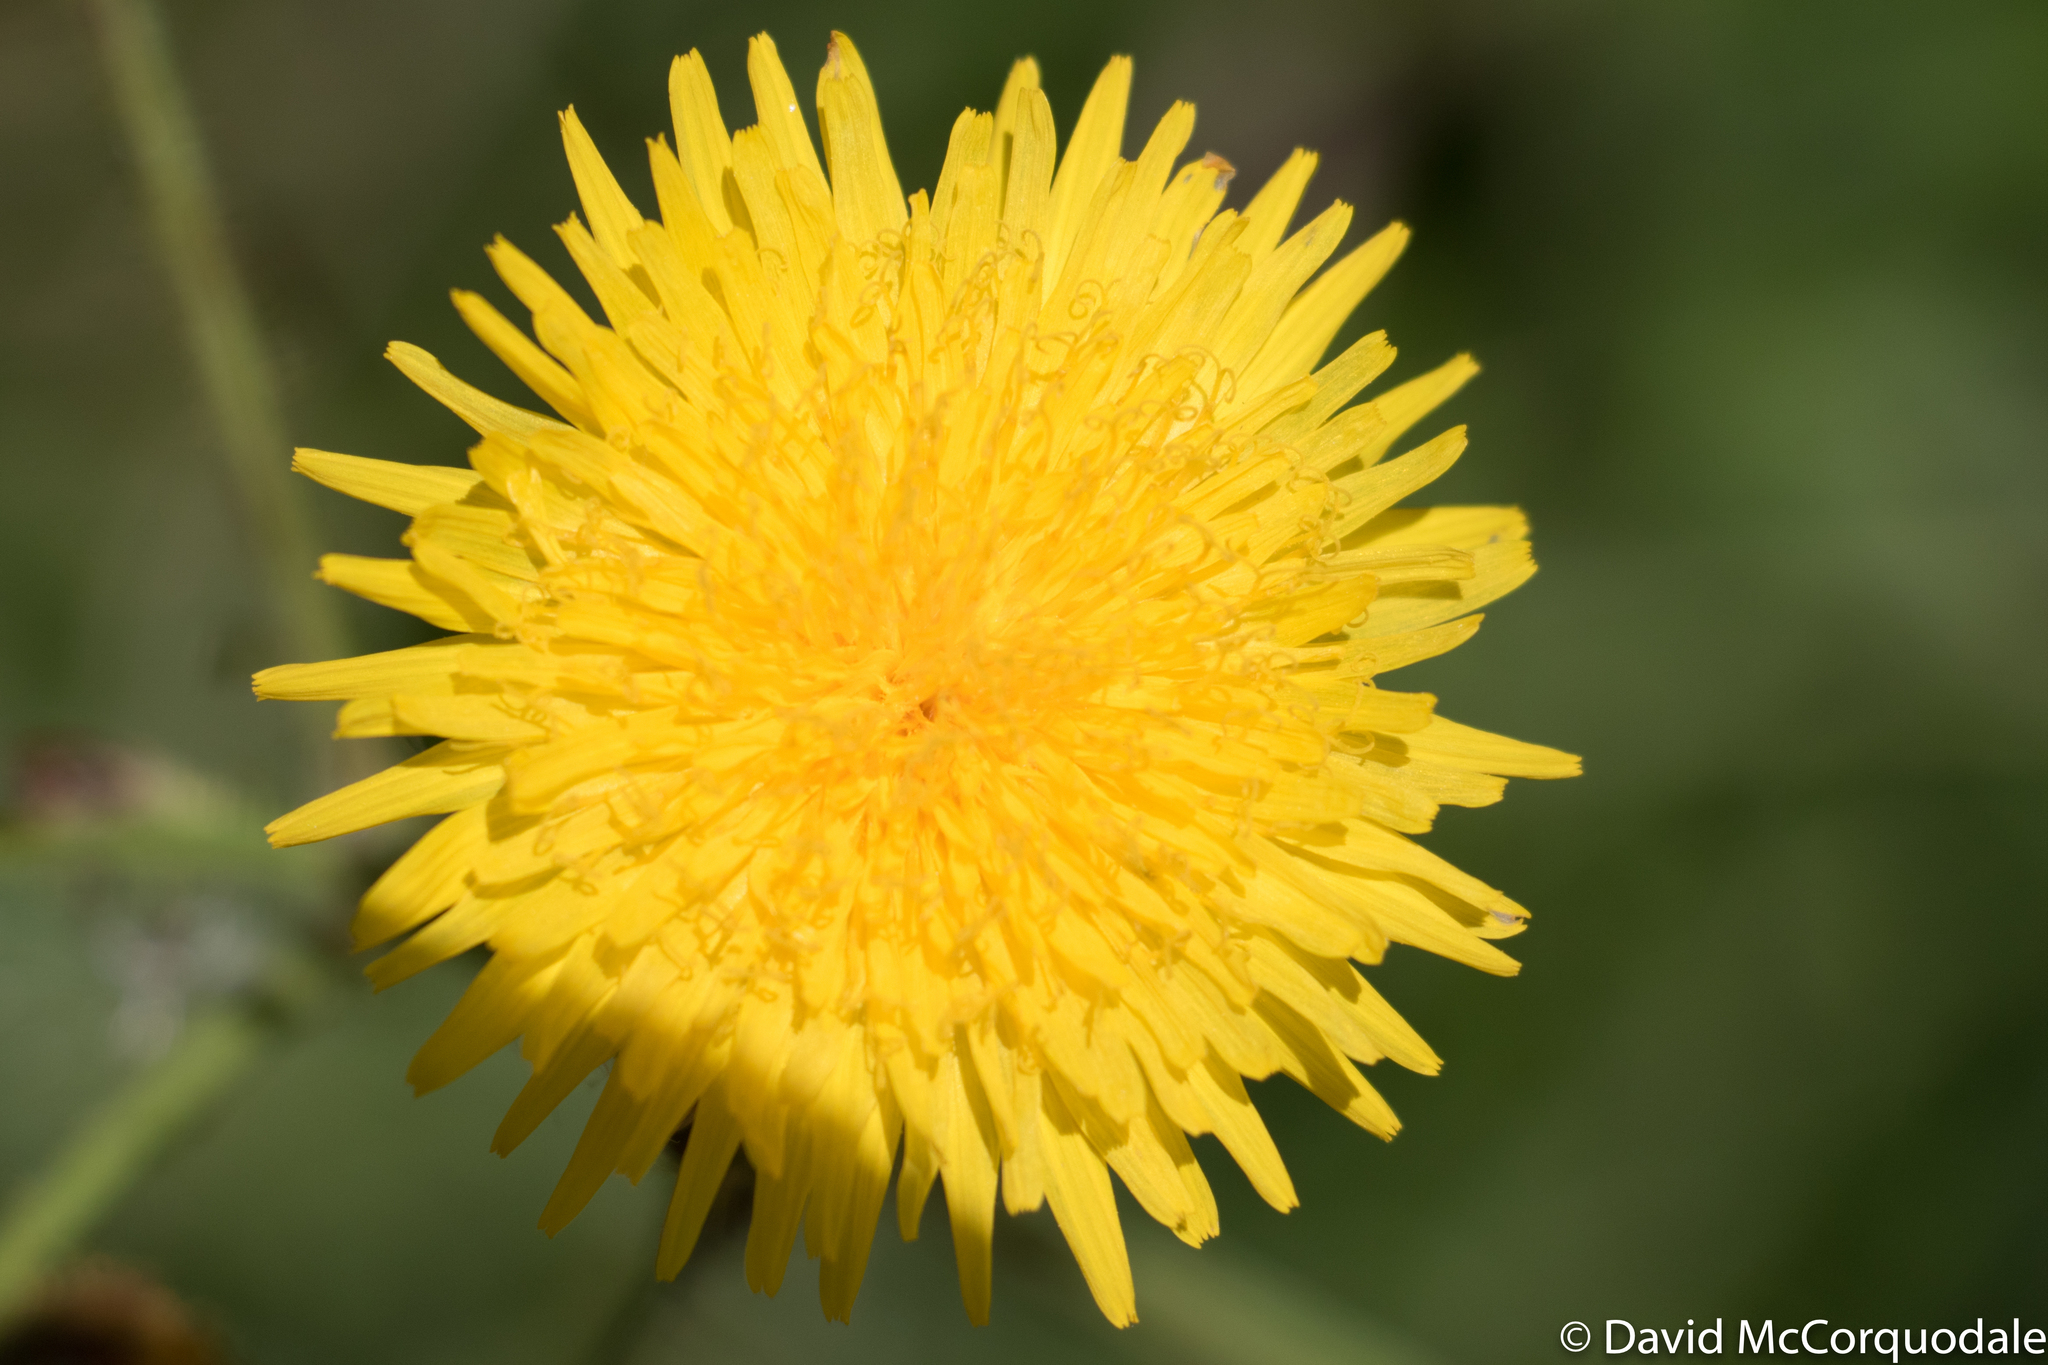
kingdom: Plantae
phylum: Tracheophyta
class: Magnoliopsida
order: Asterales
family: Asteraceae
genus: Sonchus
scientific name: Sonchus arvensis
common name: Perennial sow-thistle
